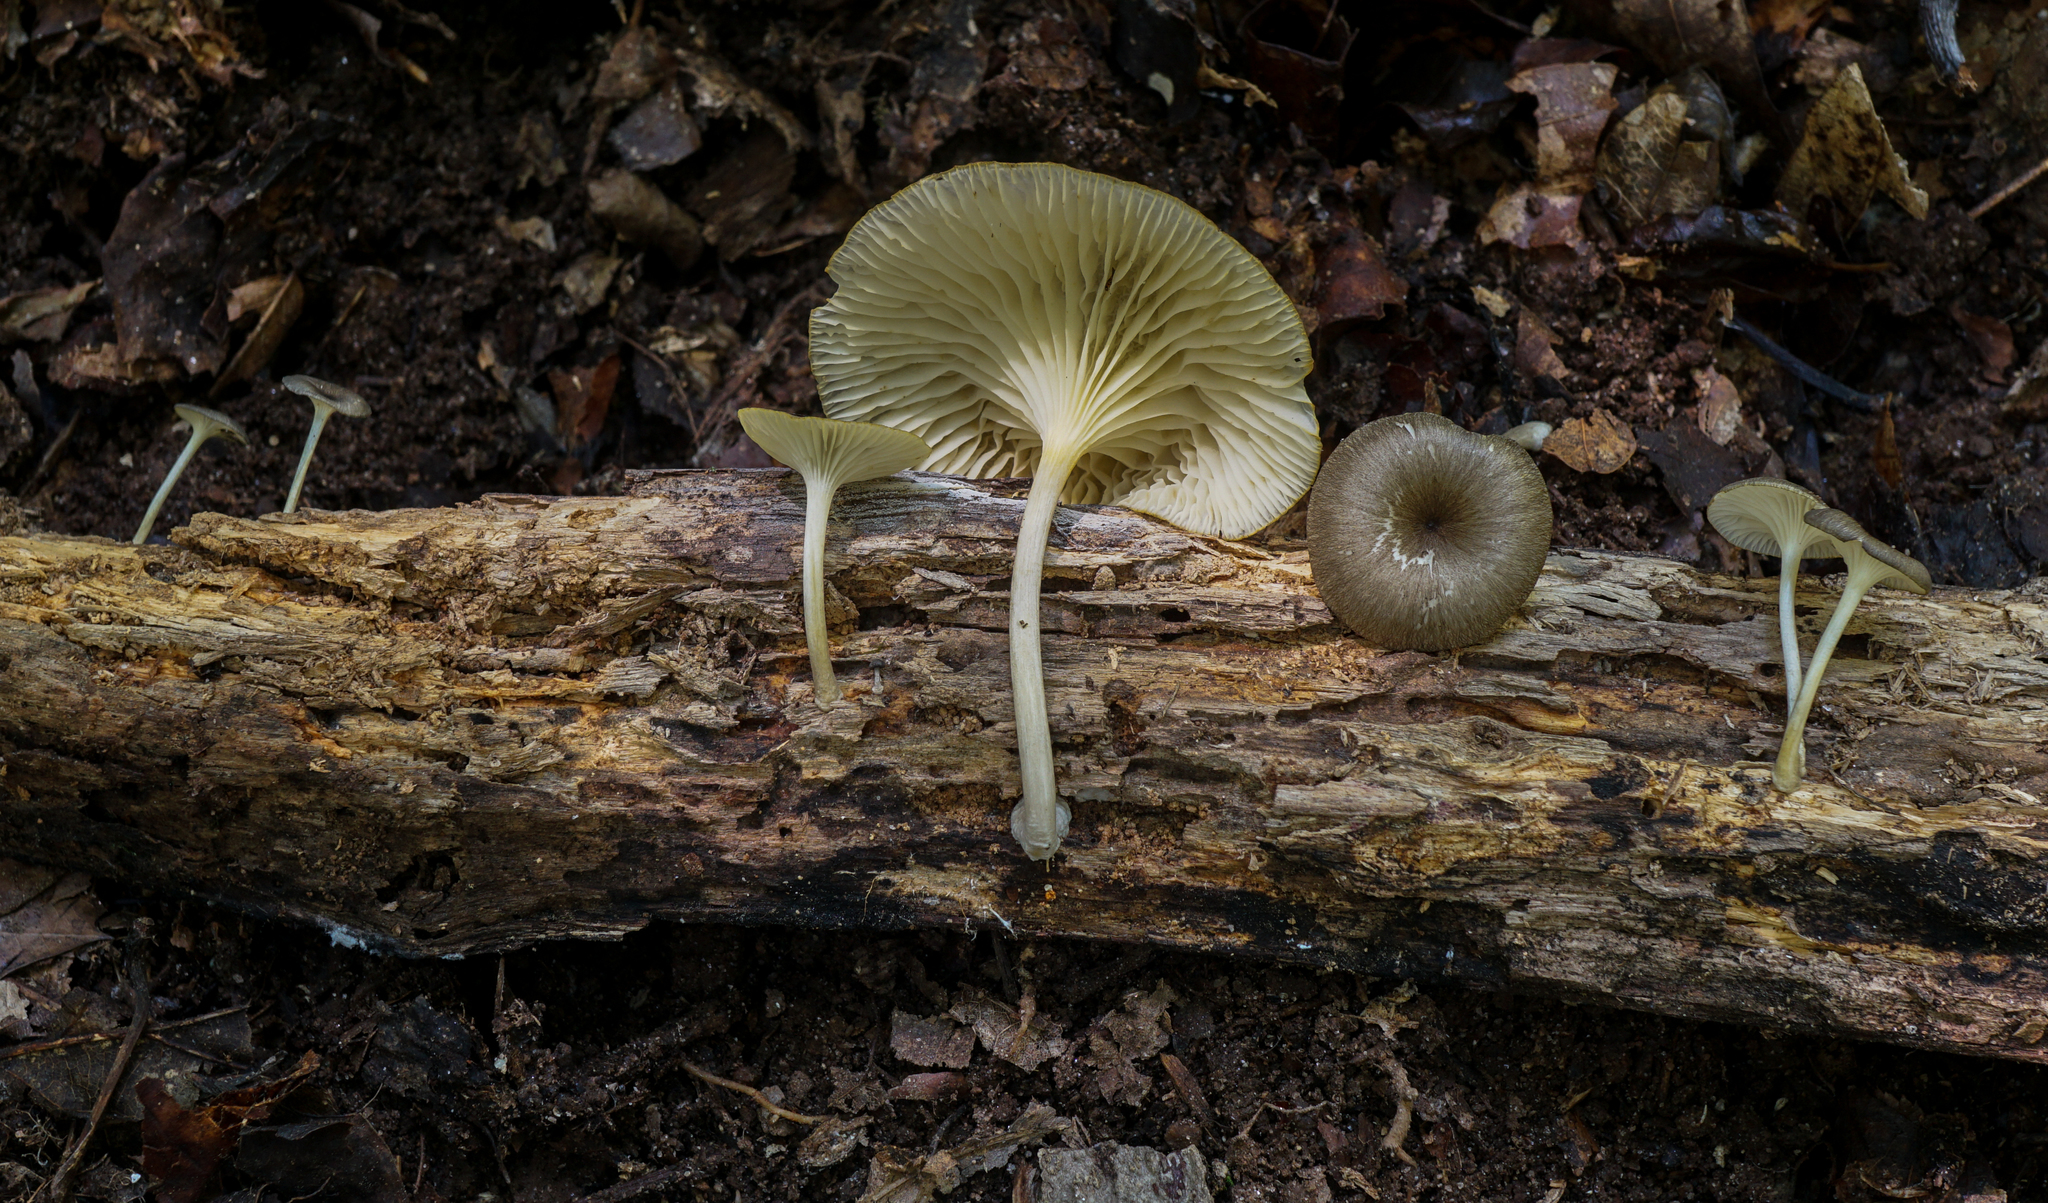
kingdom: Fungi
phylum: Basidiomycota
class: Agaricomycetes
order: Agaricales
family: Hygrophoraceae
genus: Arrhenia
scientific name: Arrhenia epichysium
